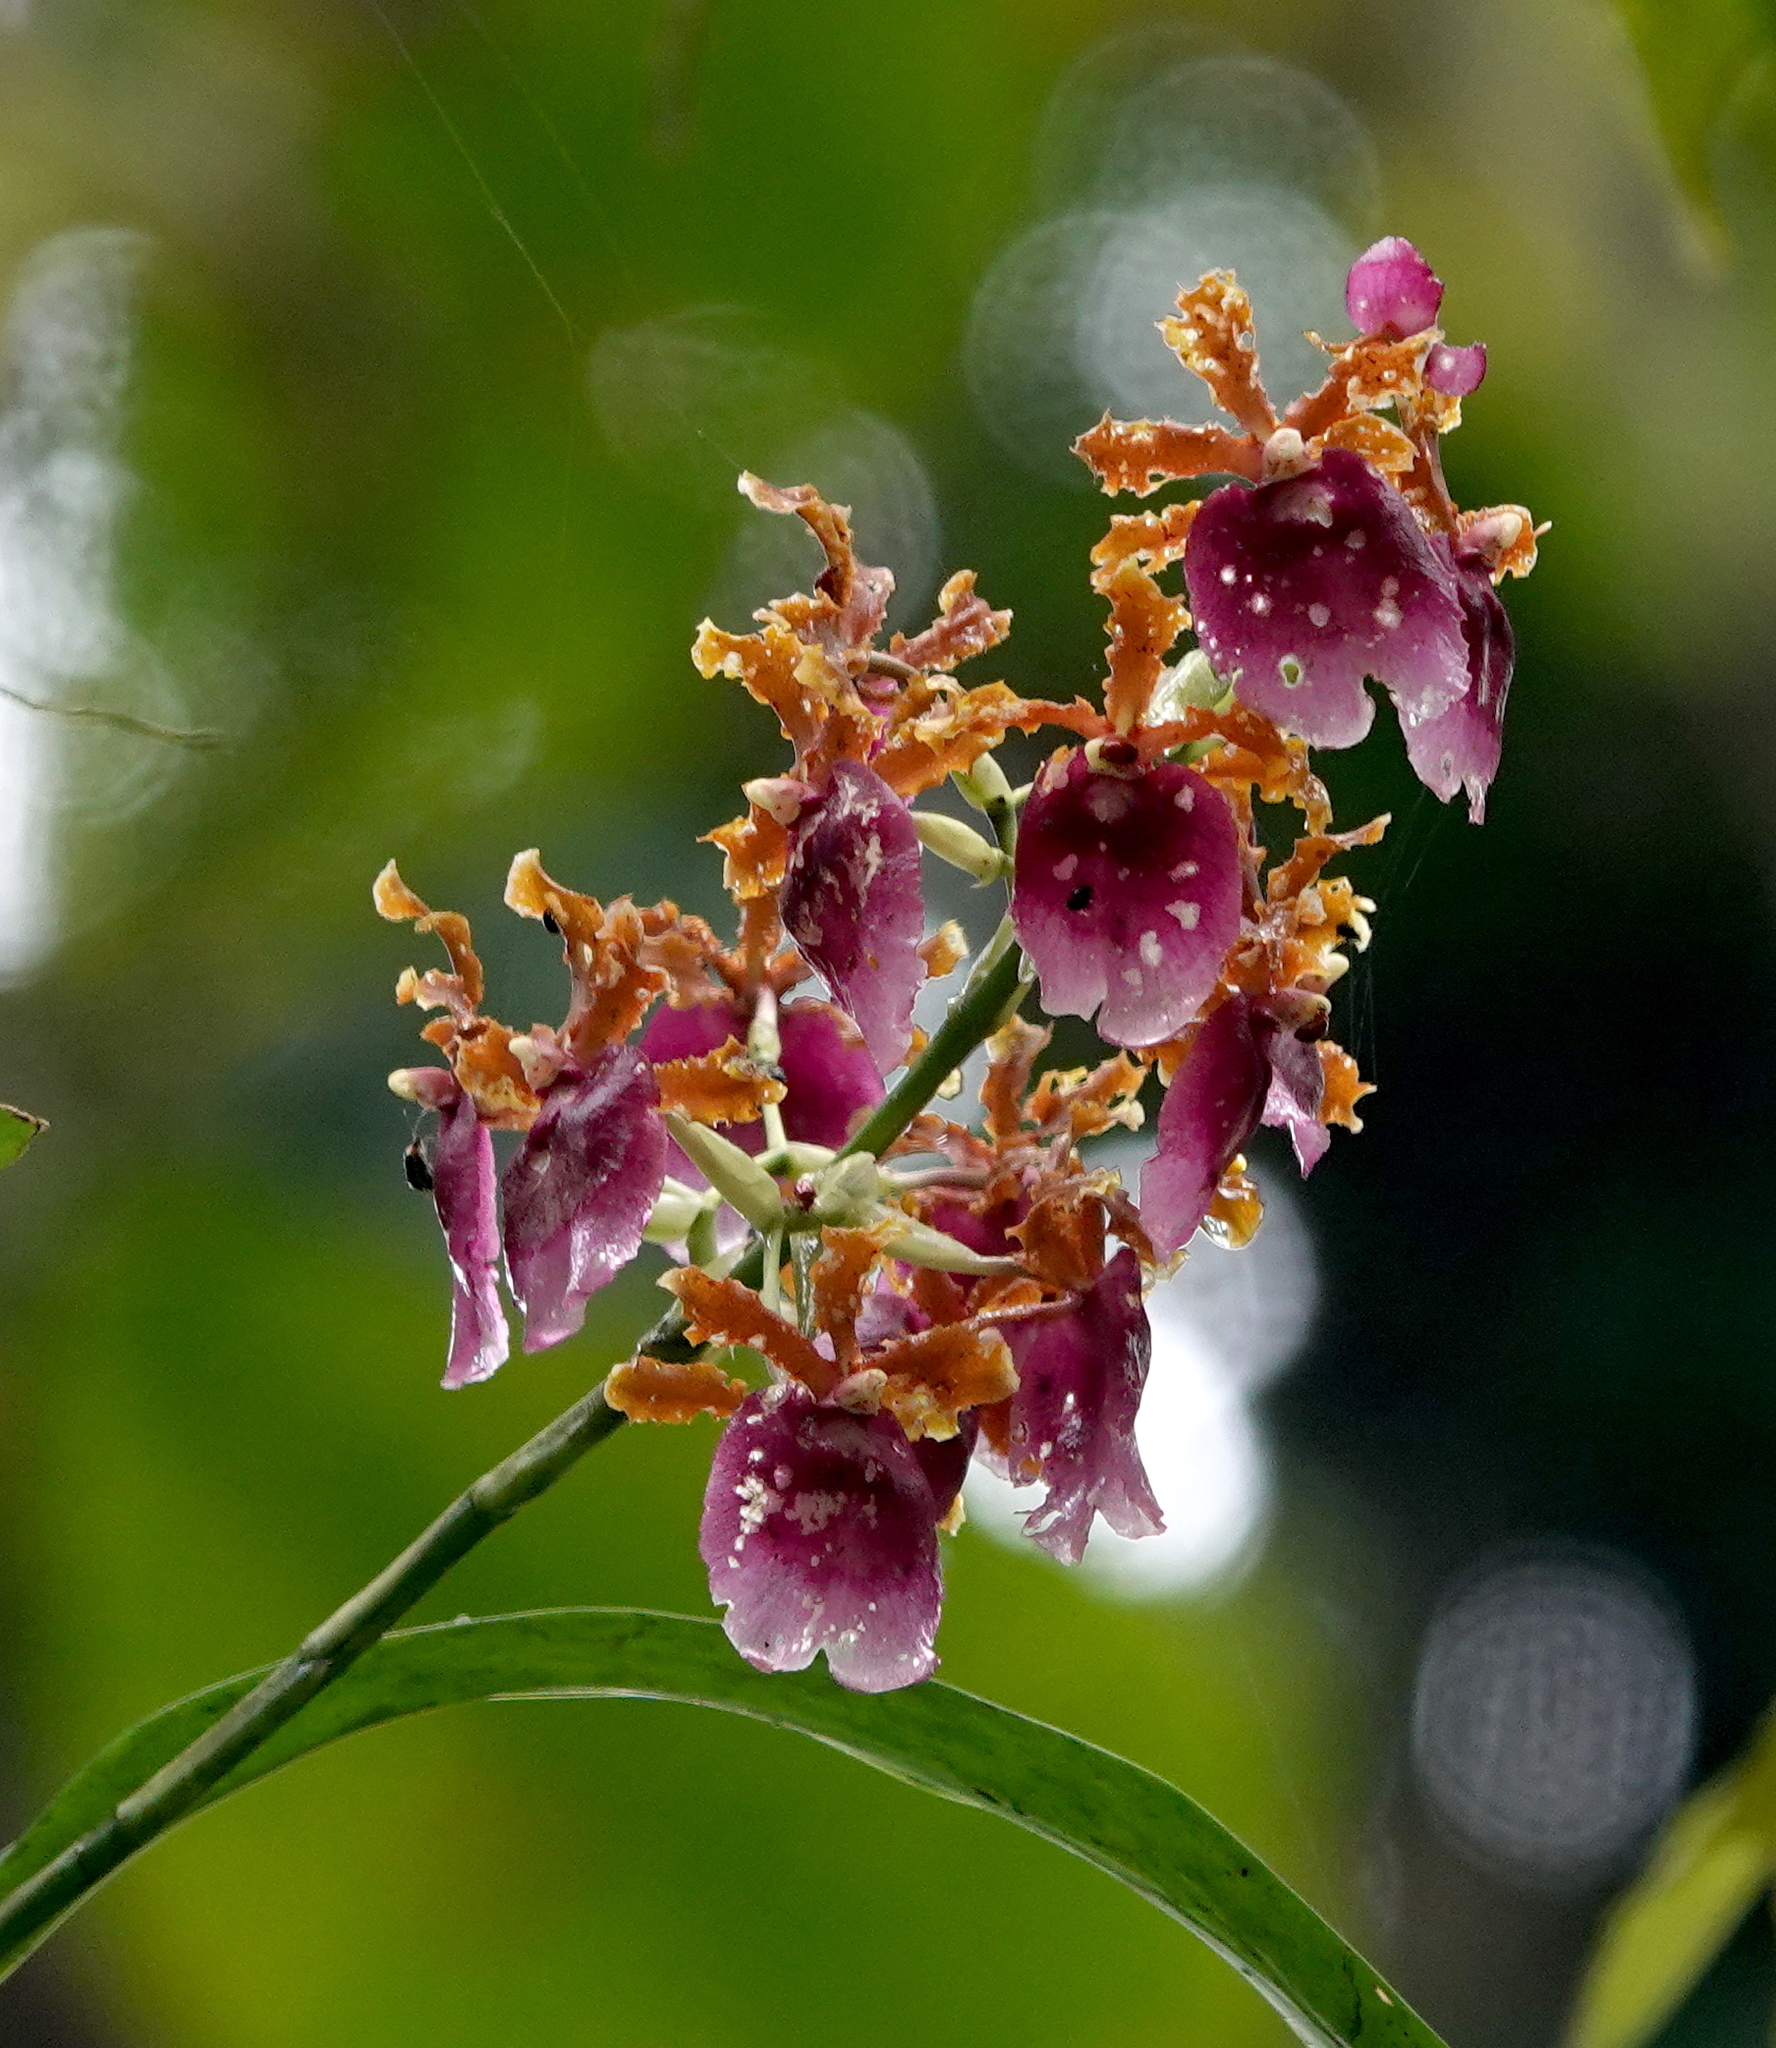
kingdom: Plantae
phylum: Tracheophyta
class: Liliopsida
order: Asparagales
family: Orchidaceae
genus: Oncidium
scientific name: Oncidium fuscatum
